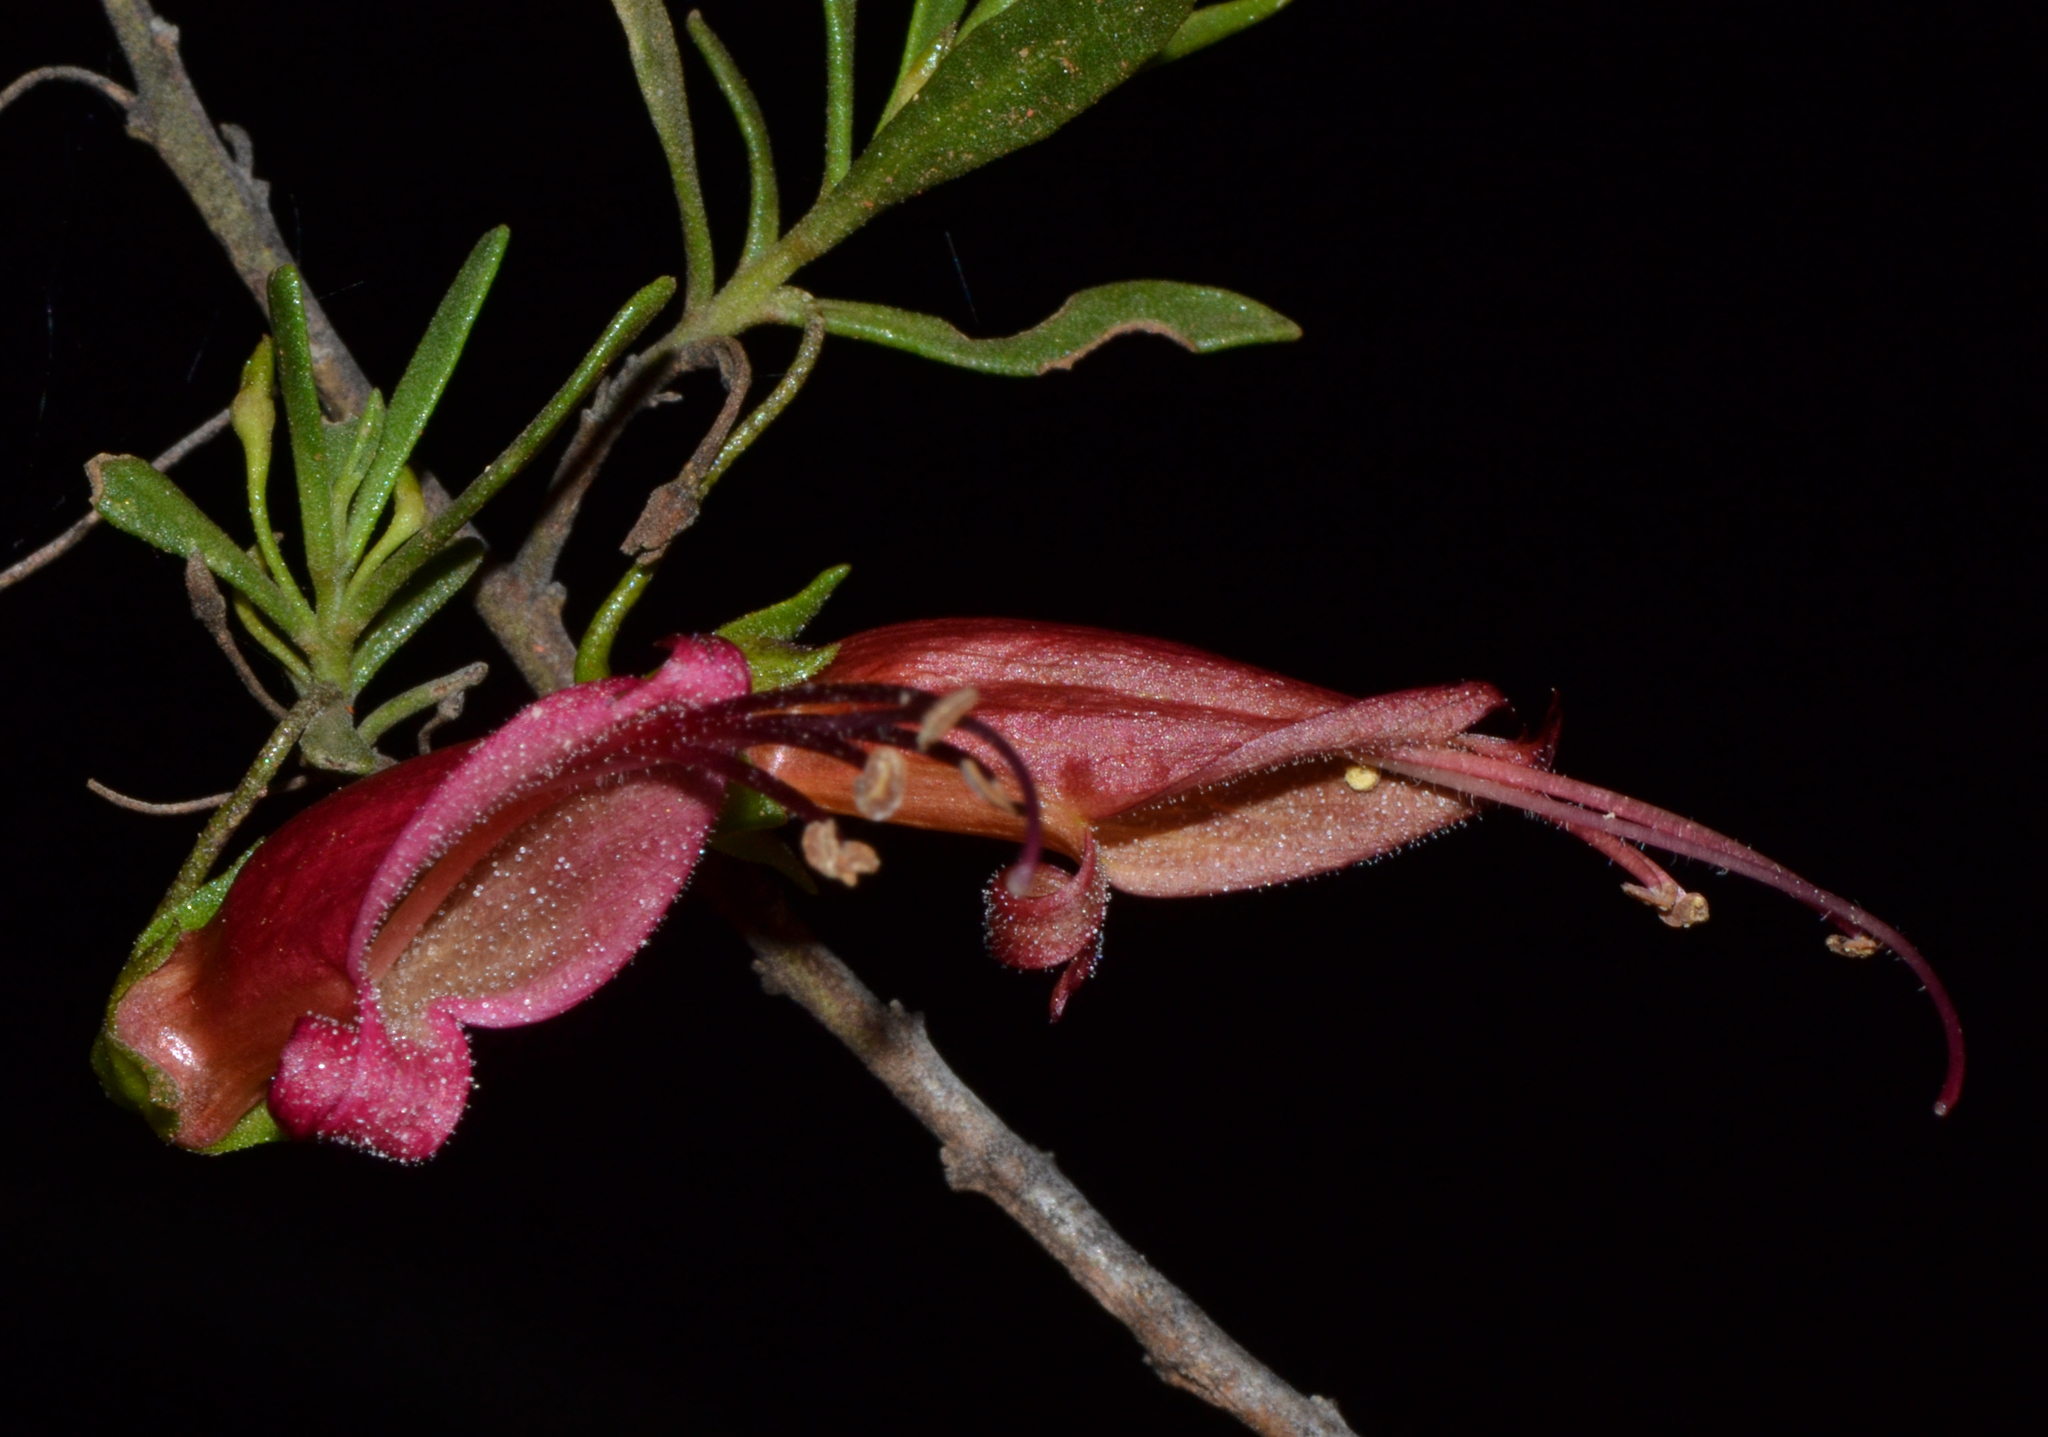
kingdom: Plantae
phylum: Tracheophyta
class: Magnoliopsida
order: Lamiales
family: Scrophulariaceae
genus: Eremophila
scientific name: Eremophila decipiens
